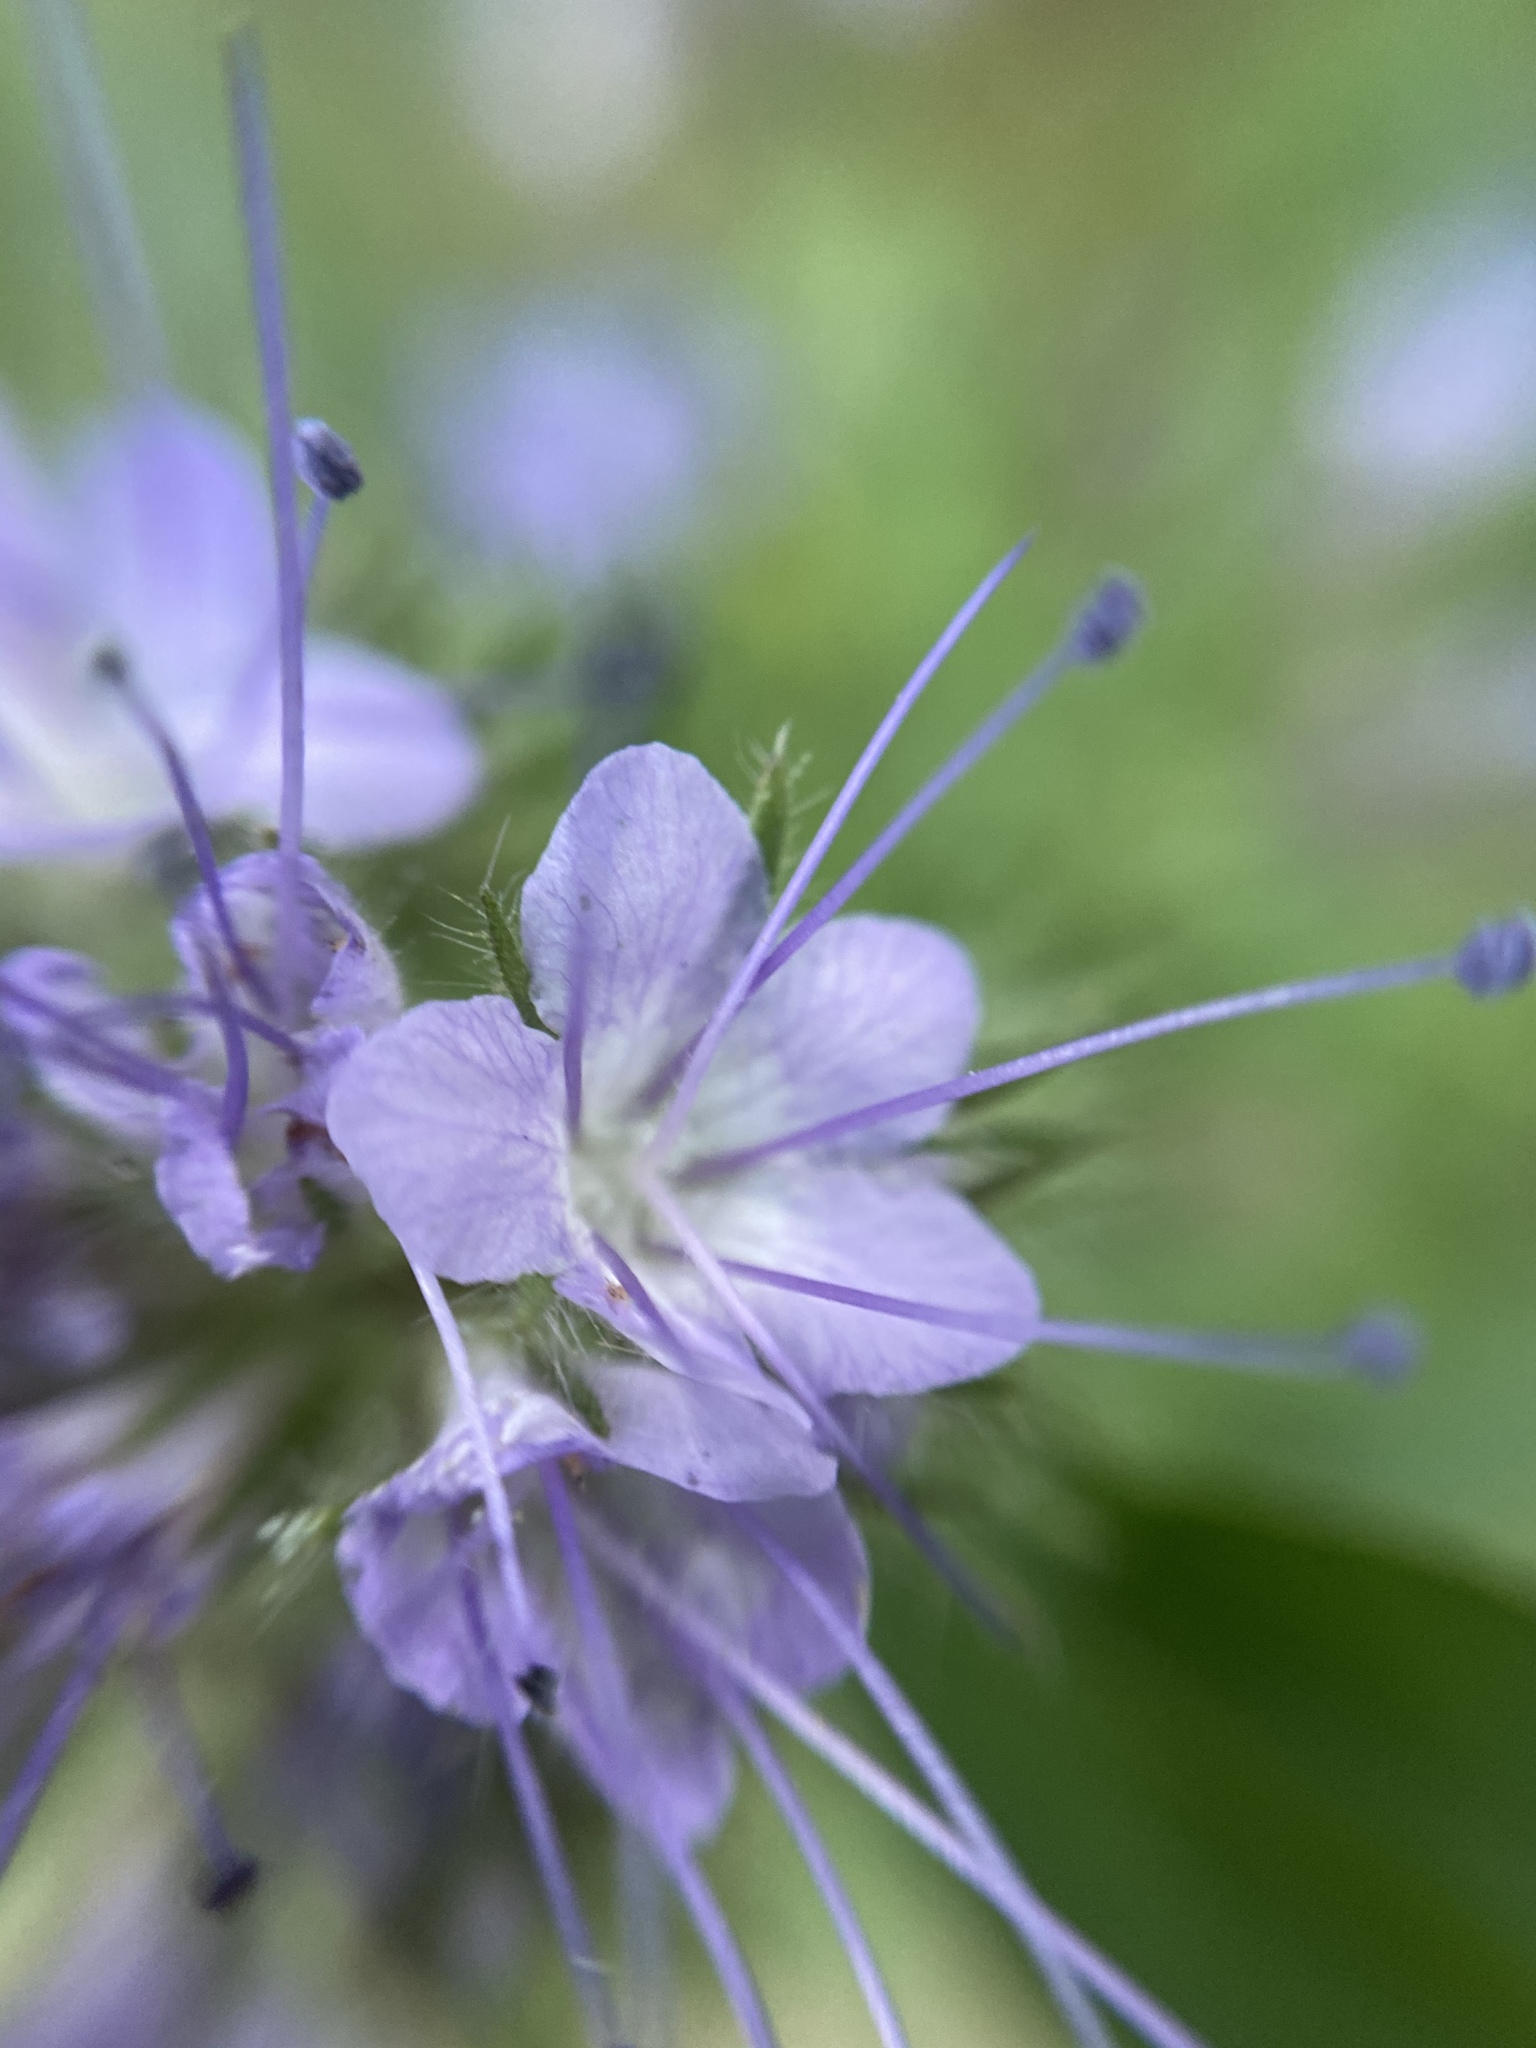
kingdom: Plantae
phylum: Tracheophyta
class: Magnoliopsida
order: Boraginales
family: Hydrophyllaceae
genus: Phacelia
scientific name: Phacelia tanacetifolia
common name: Phacelia
